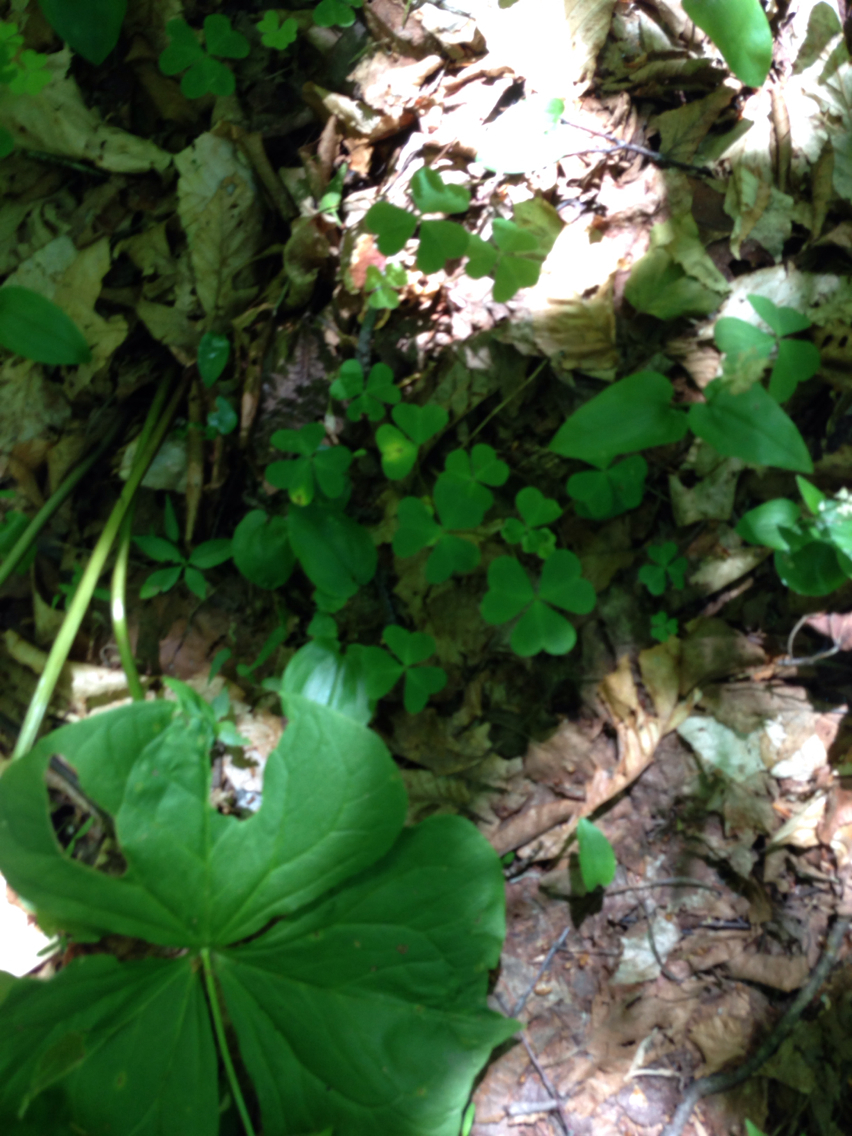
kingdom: Plantae
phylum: Tracheophyta
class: Magnoliopsida
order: Oxalidales
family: Oxalidaceae
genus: Oxalis
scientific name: Oxalis montana
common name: American wood-sorrel
